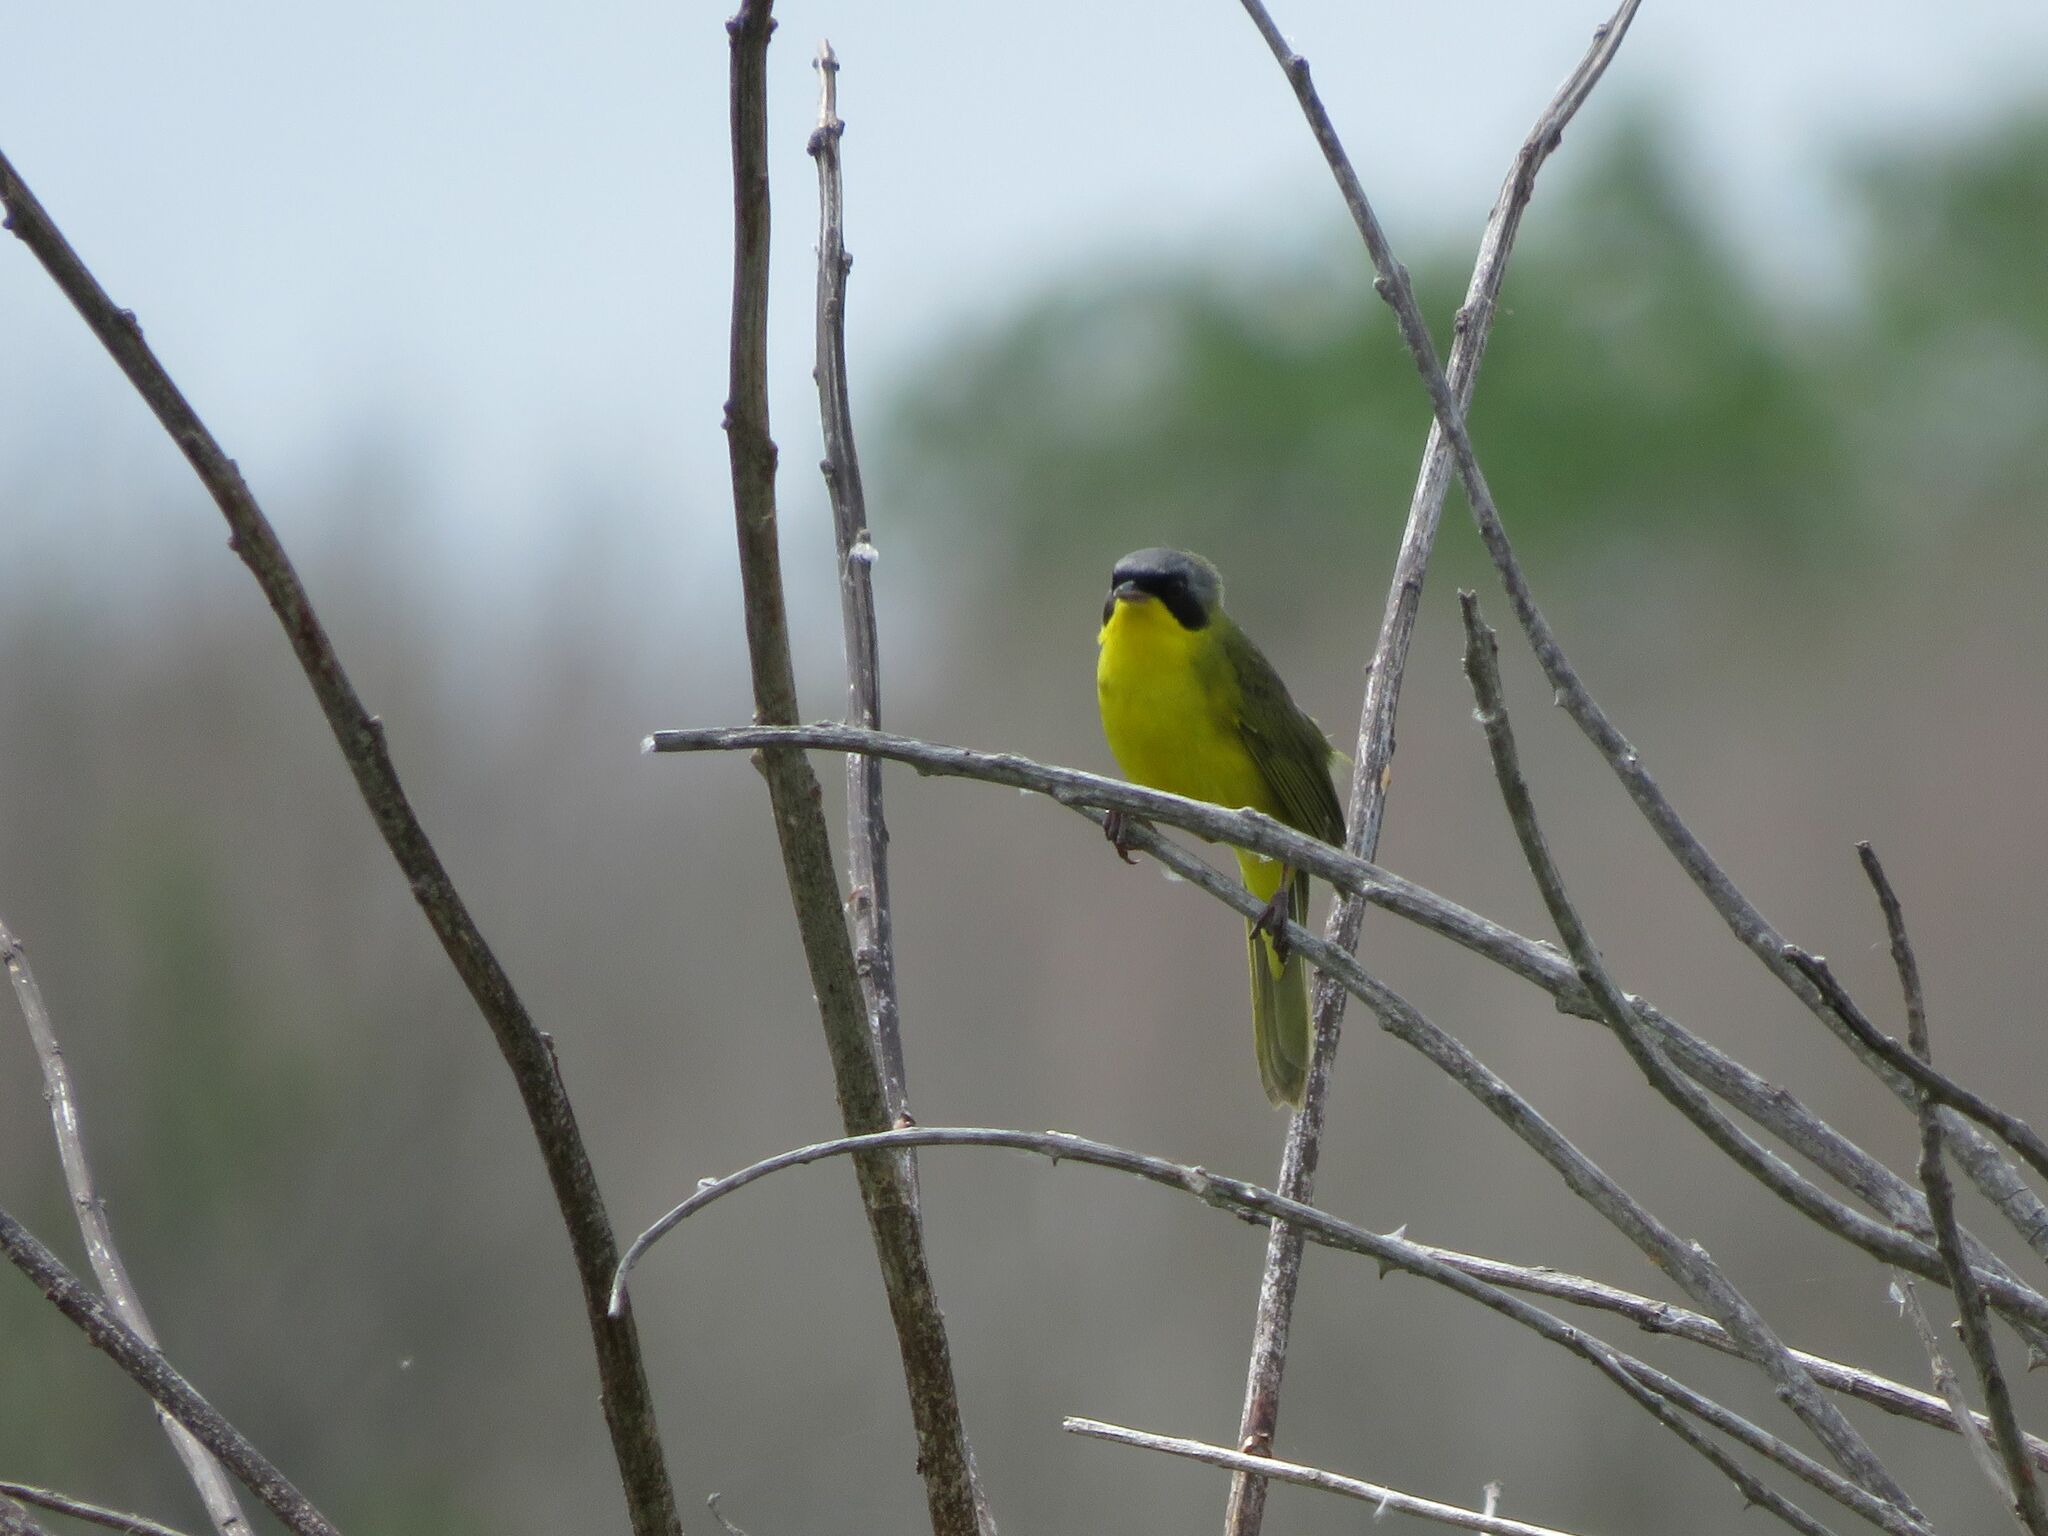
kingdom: Animalia
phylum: Chordata
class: Aves
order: Passeriformes
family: Parulidae
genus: Geothlypis
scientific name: Geothlypis velata
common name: Southern yellowthroat
